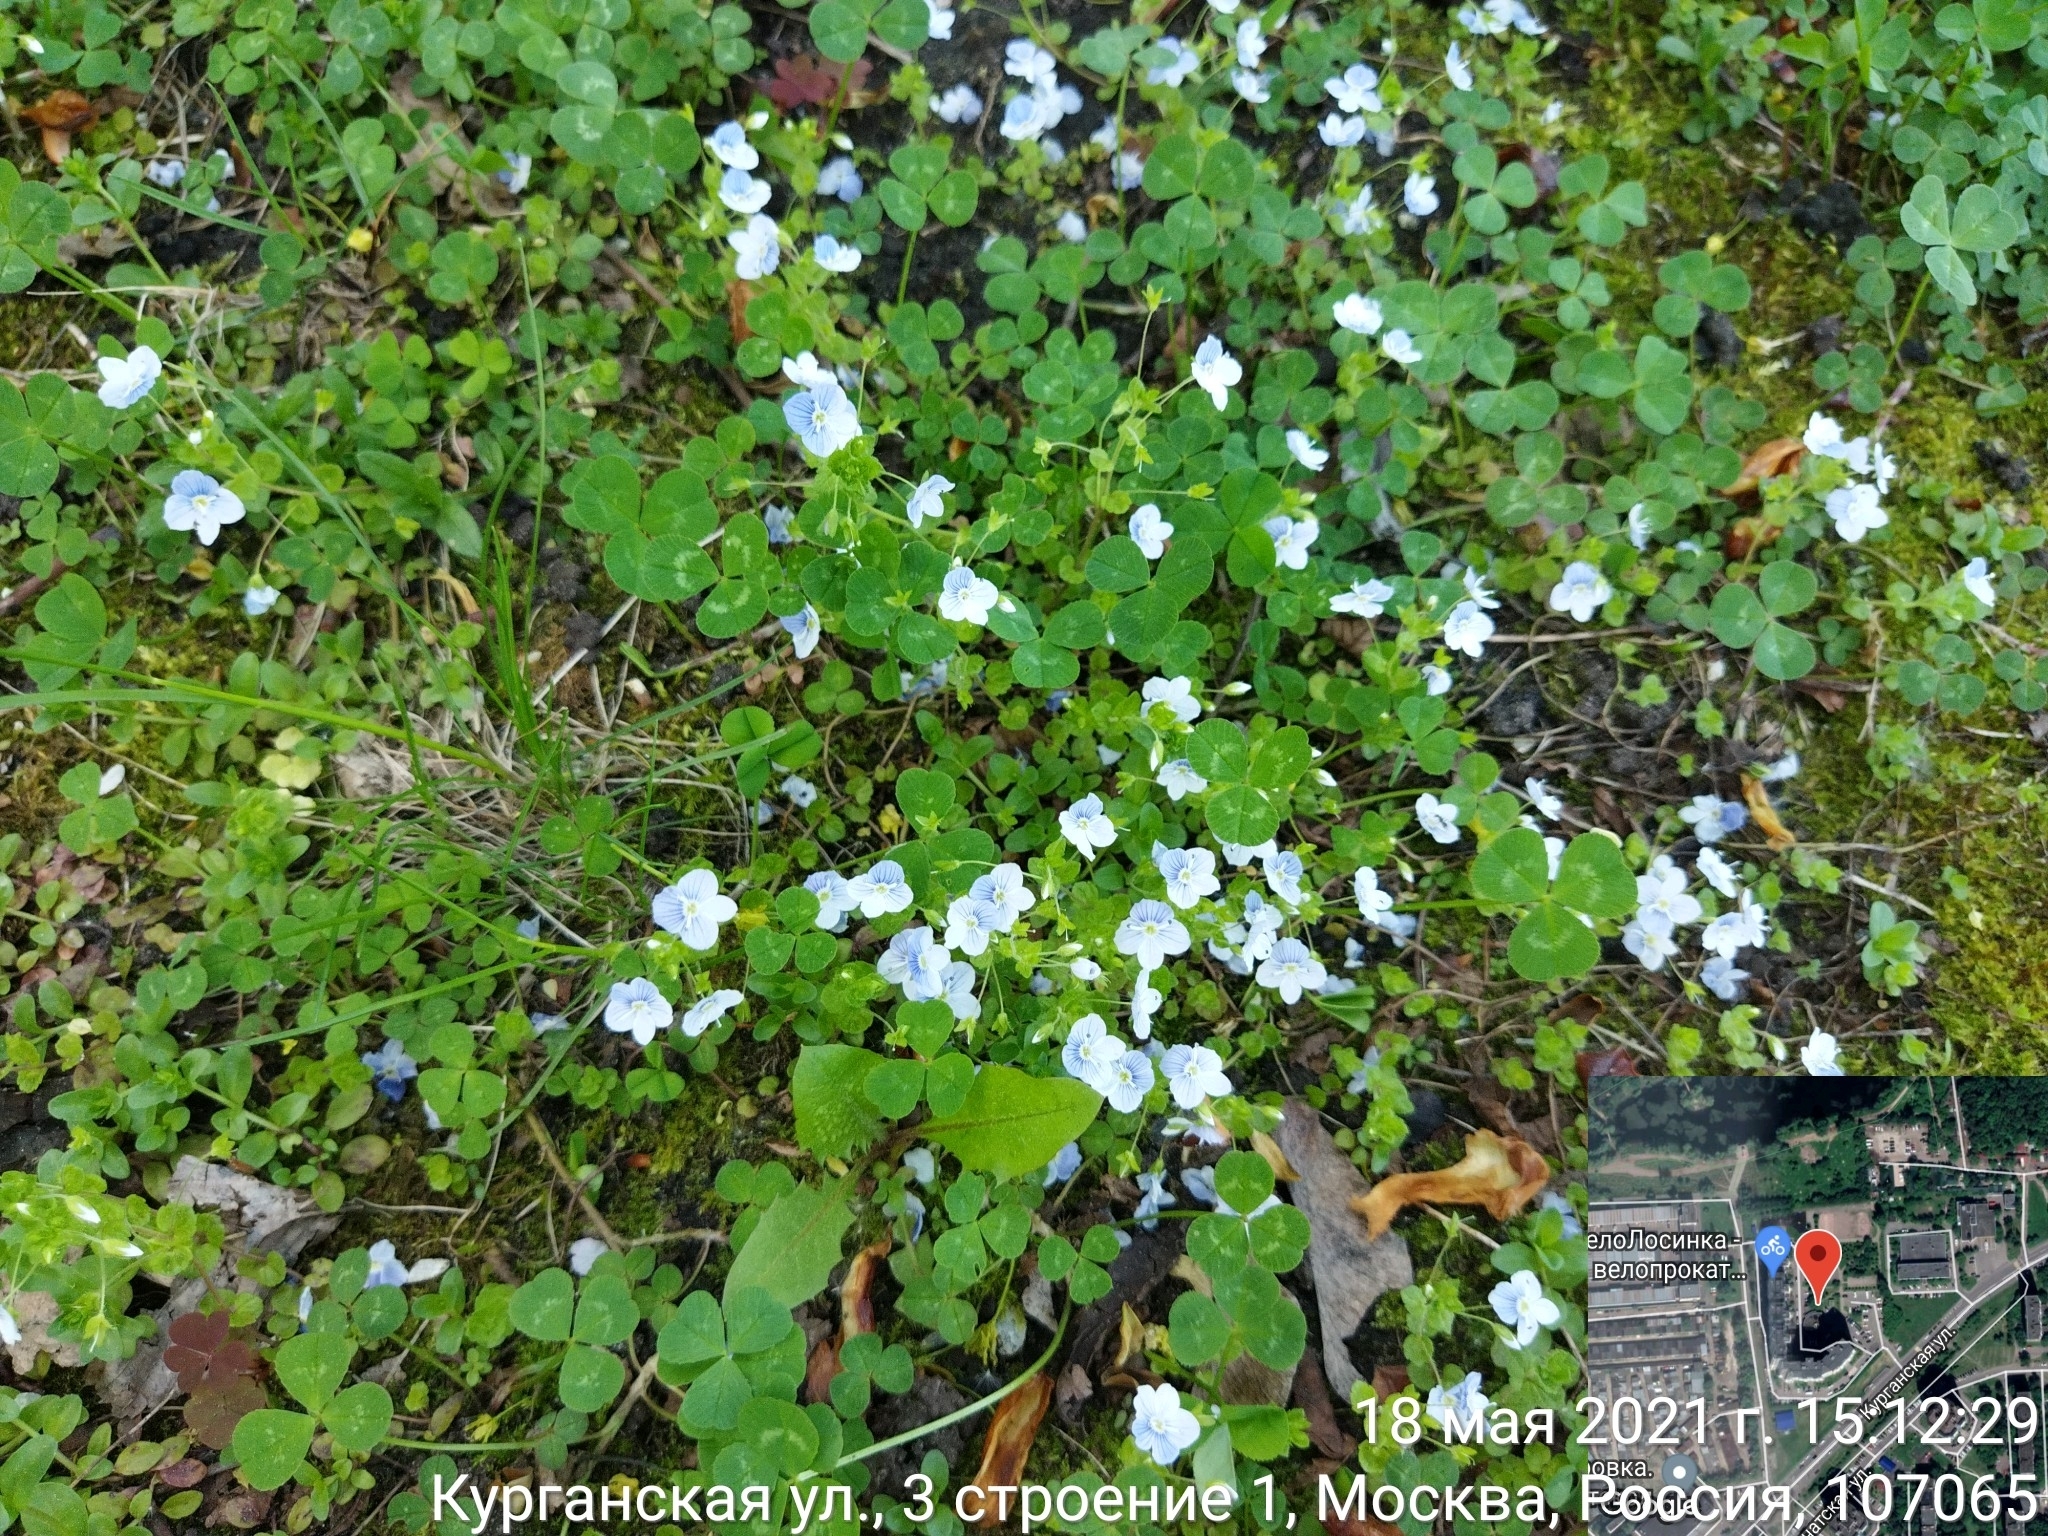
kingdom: Plantae
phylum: Tracheophyta
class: Magnoliopsida
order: Lamiales
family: Plantaginaceae
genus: Veronica
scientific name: Veronica filiformis
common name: Slender speedwell
